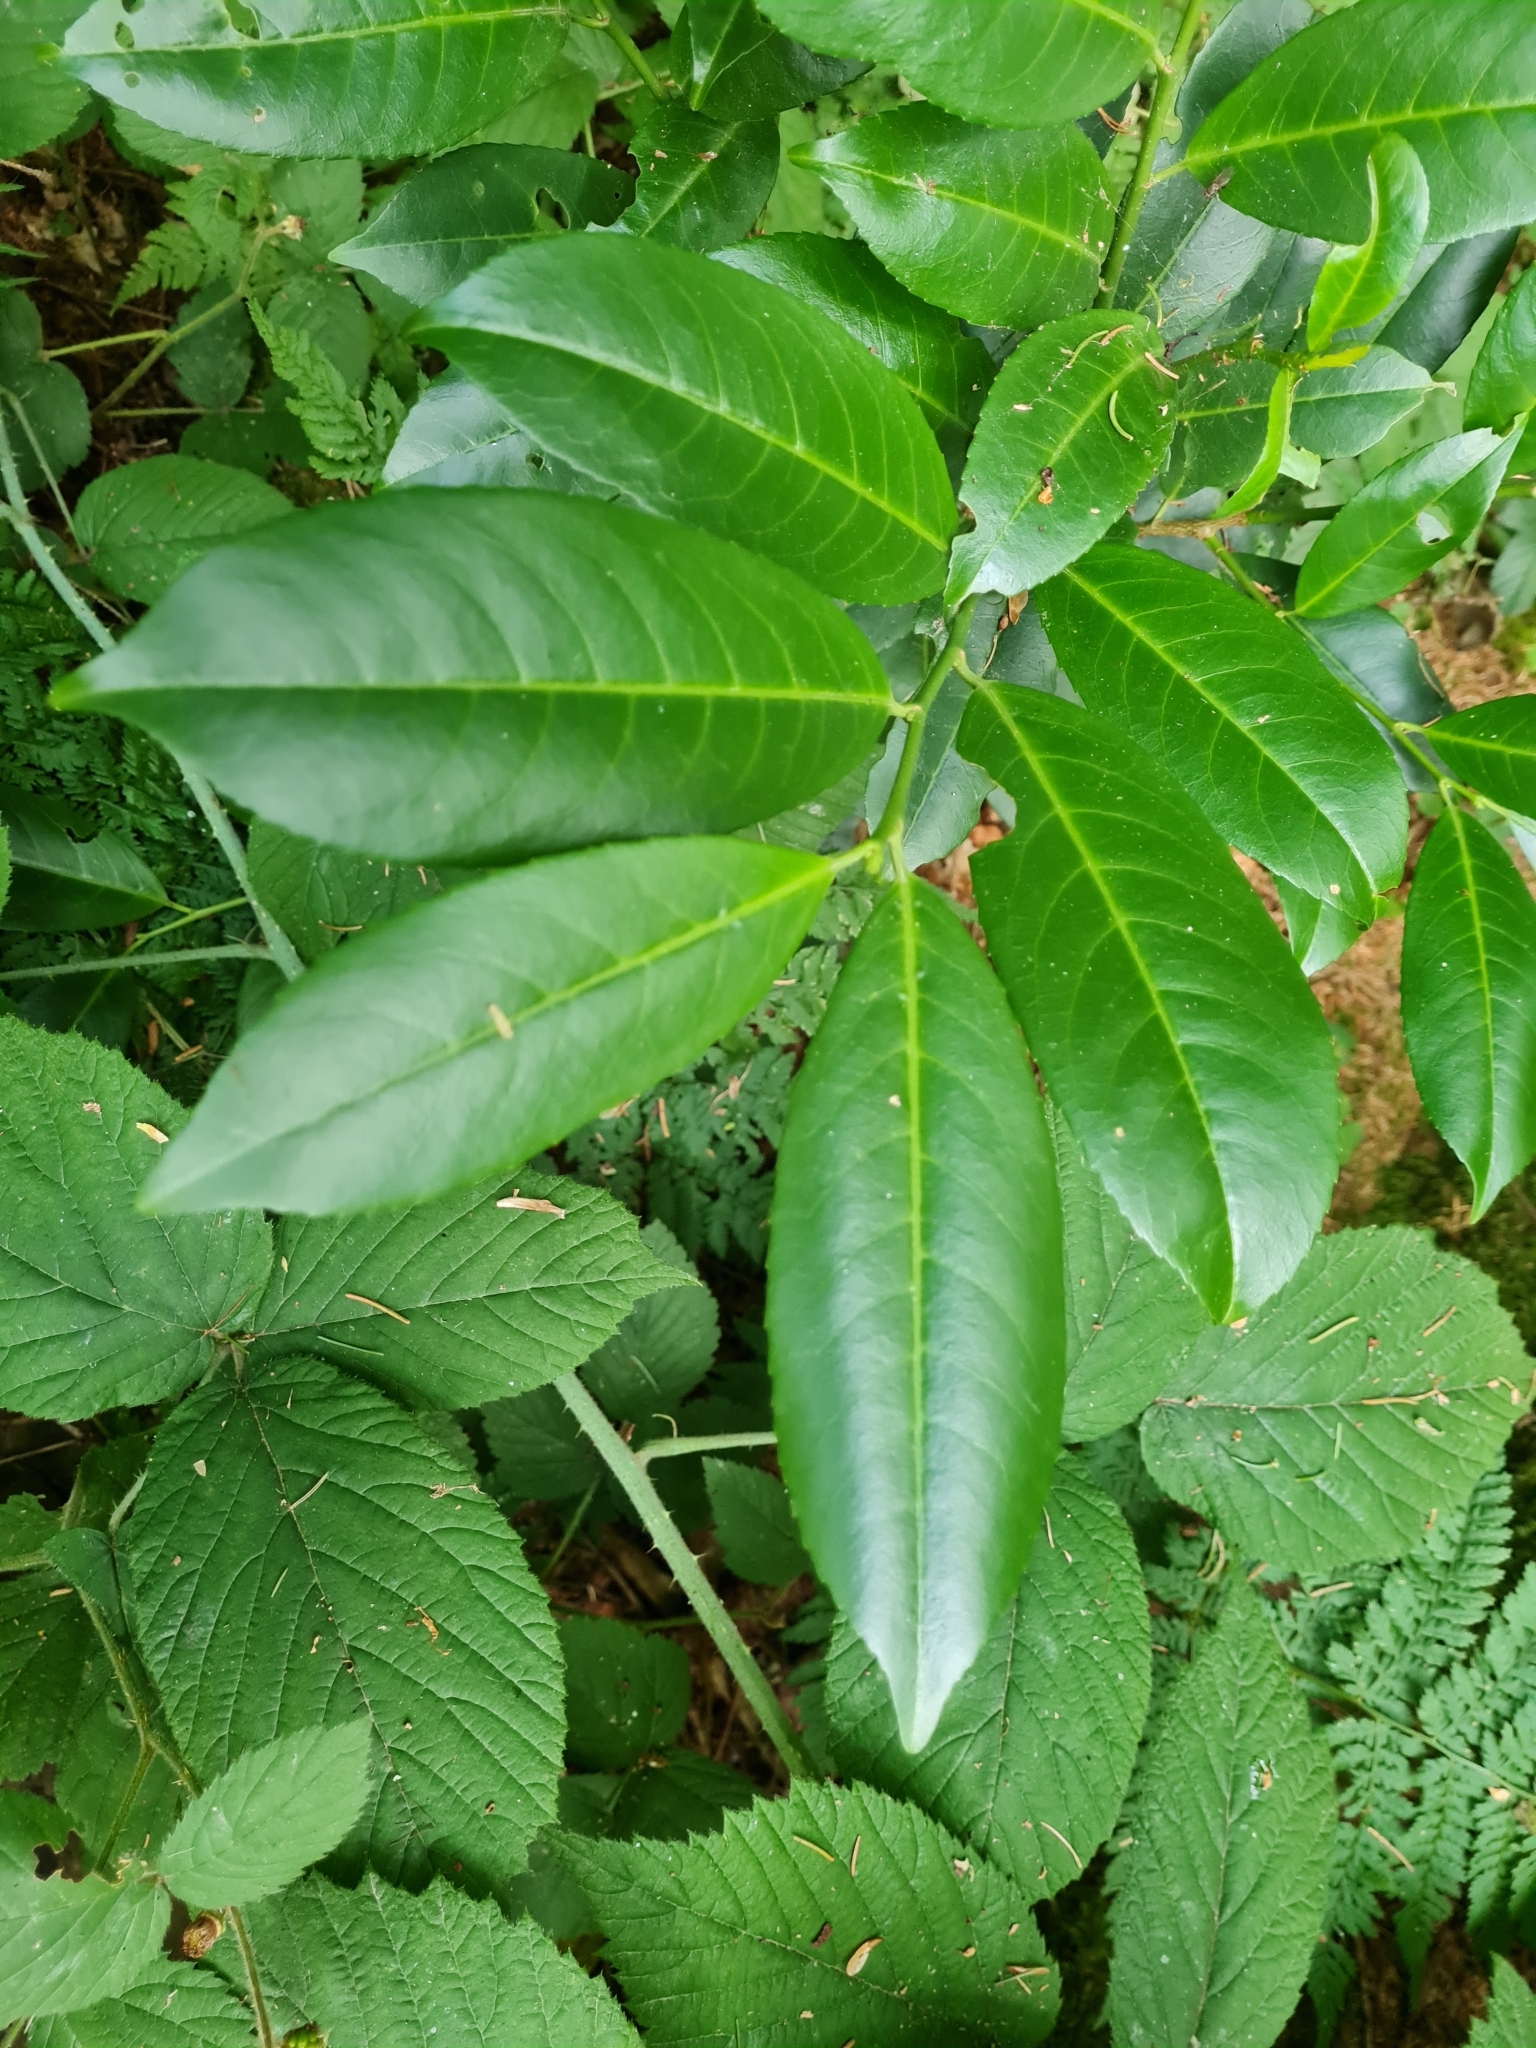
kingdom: Plantae
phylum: Tracheophyta
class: Magnoliopsida
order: Rosales
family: Rosaceae
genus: Prunus
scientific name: Prunus laurocerasus
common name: Cherry laurel
